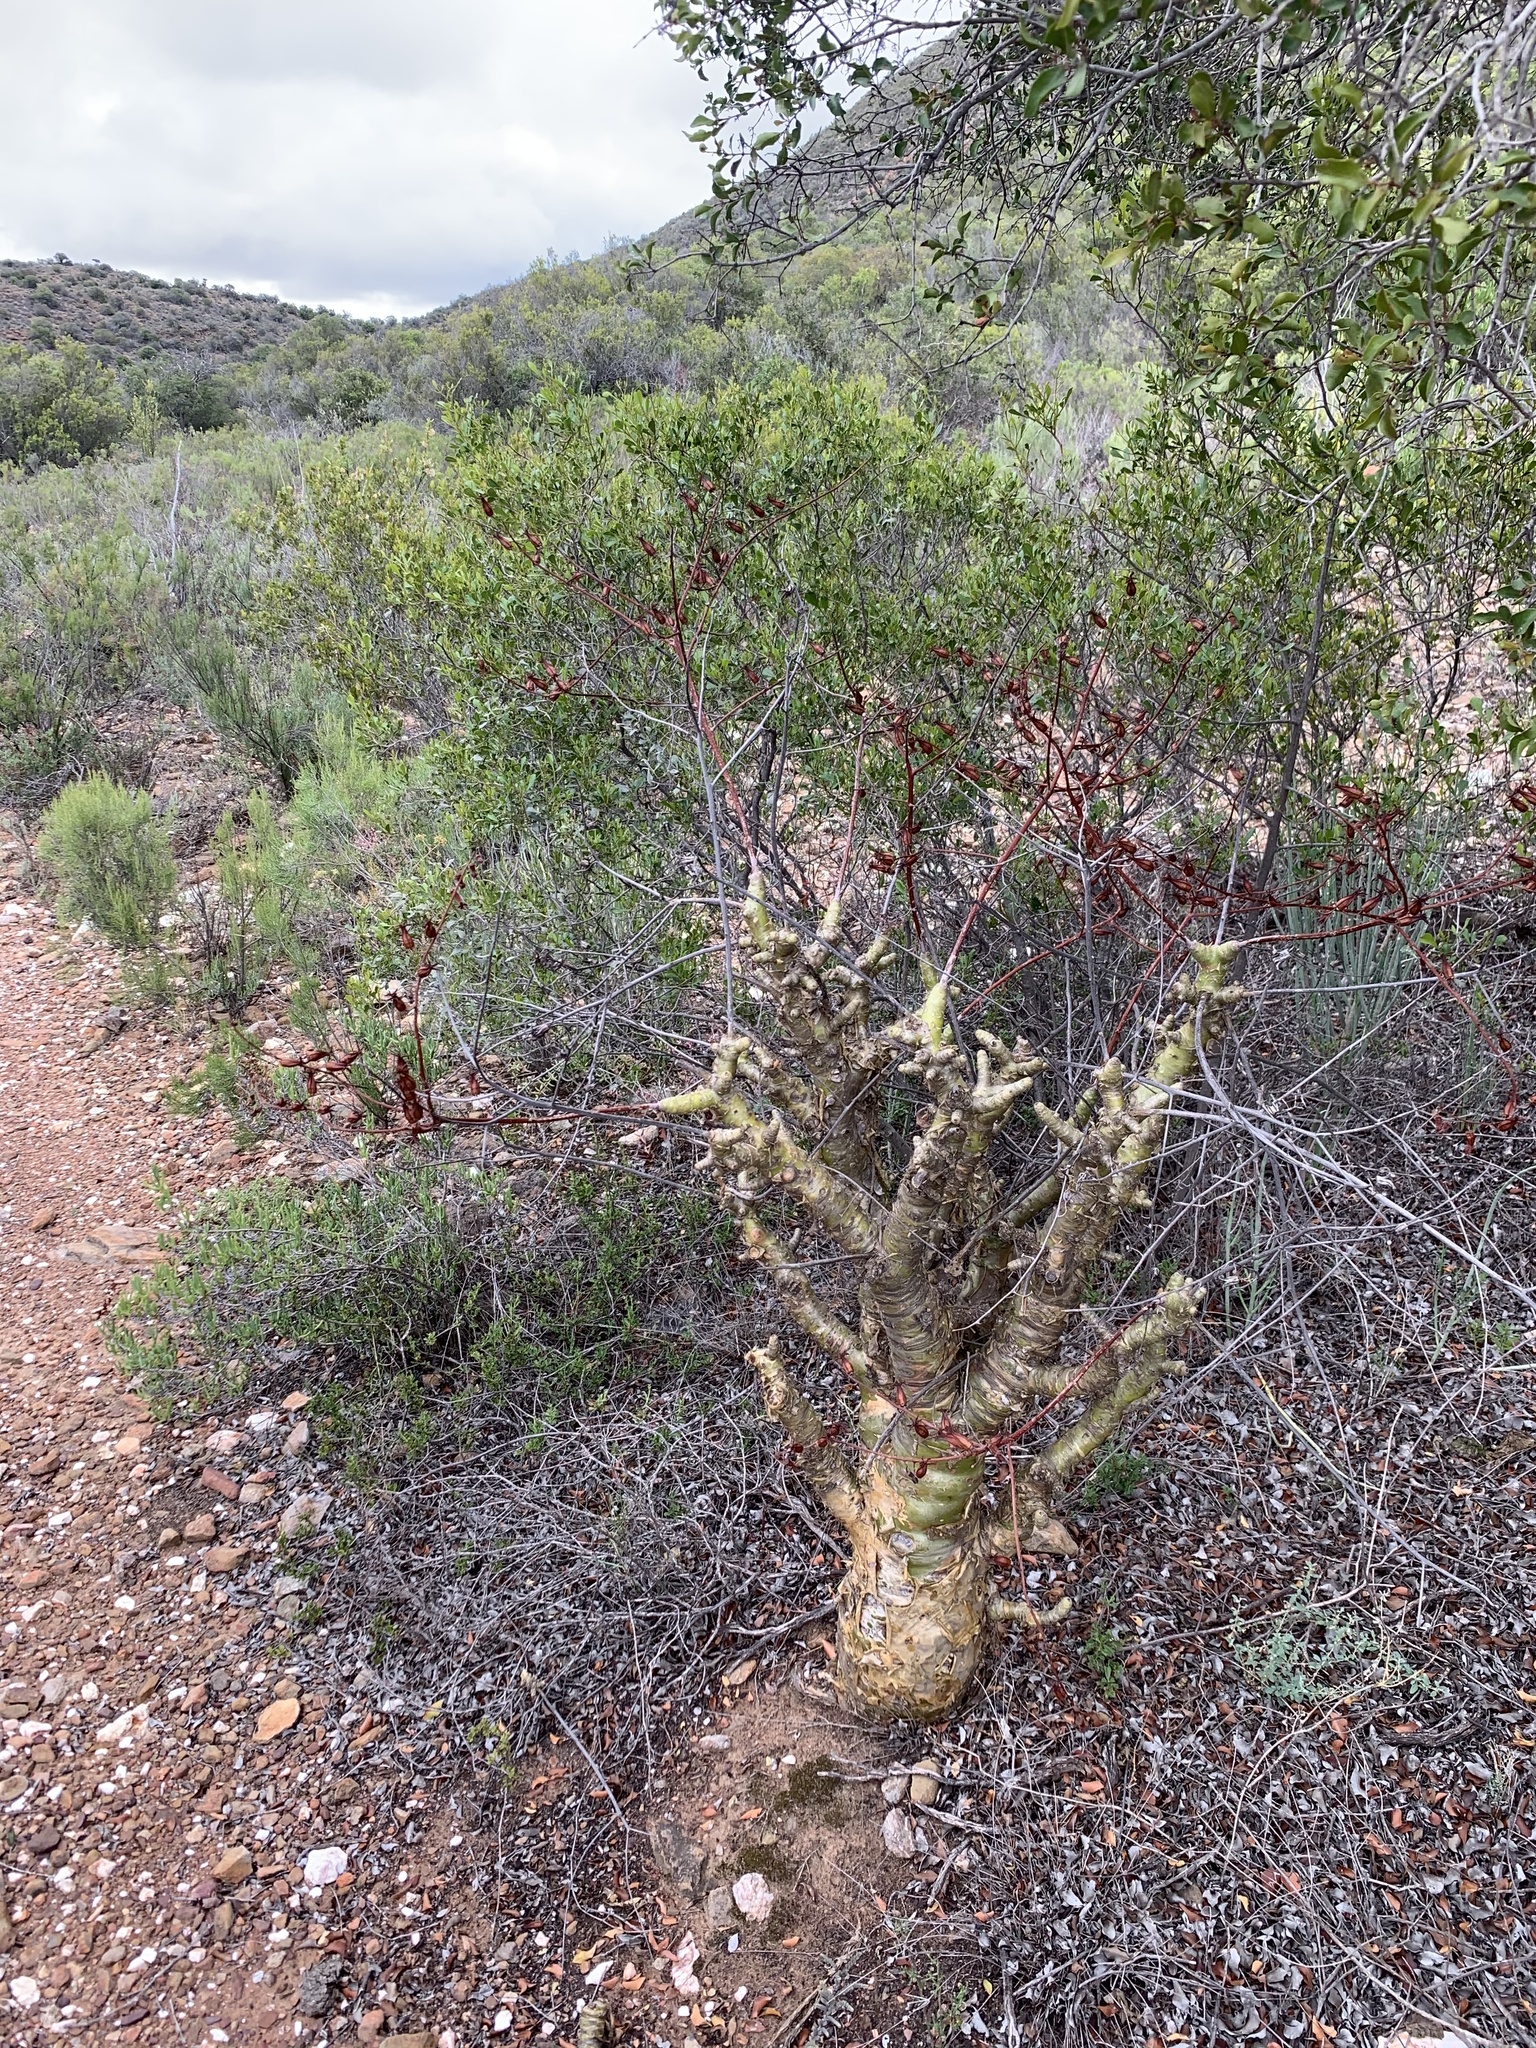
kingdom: Plantae
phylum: Tracheophyta
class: Magnoliopsida
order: Saxifragales
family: Crassulaceae
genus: Tylecodon
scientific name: Tylecodon paniculatus
